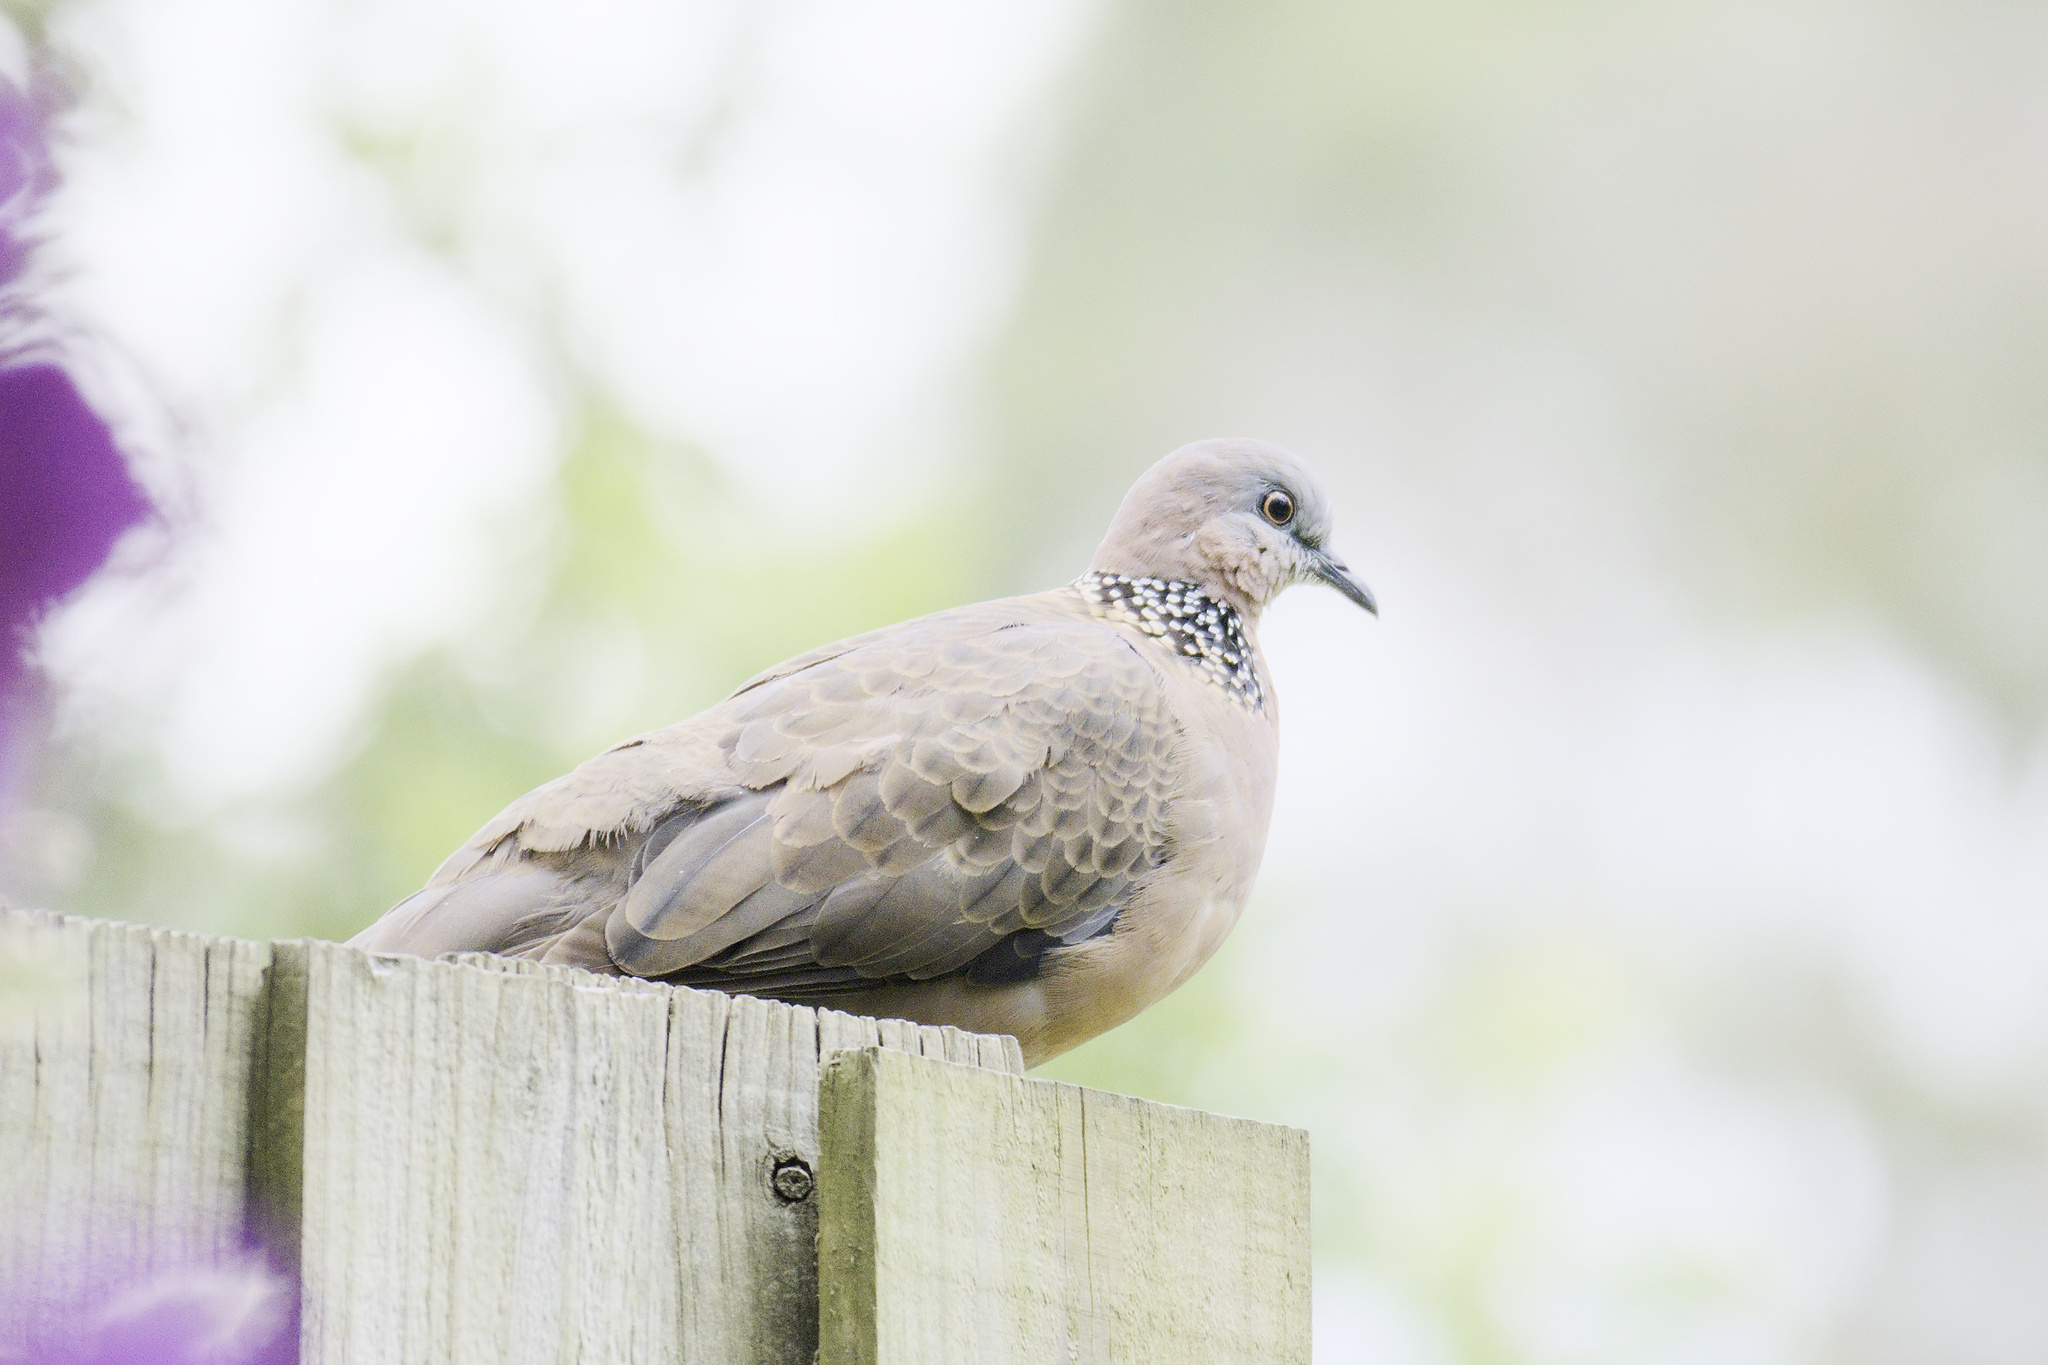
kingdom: Animalia
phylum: Chordata
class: Aves
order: Columbiformes
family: Columbidae
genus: Spilopelia
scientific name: Spilopelia chinensis
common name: Spotted dove
